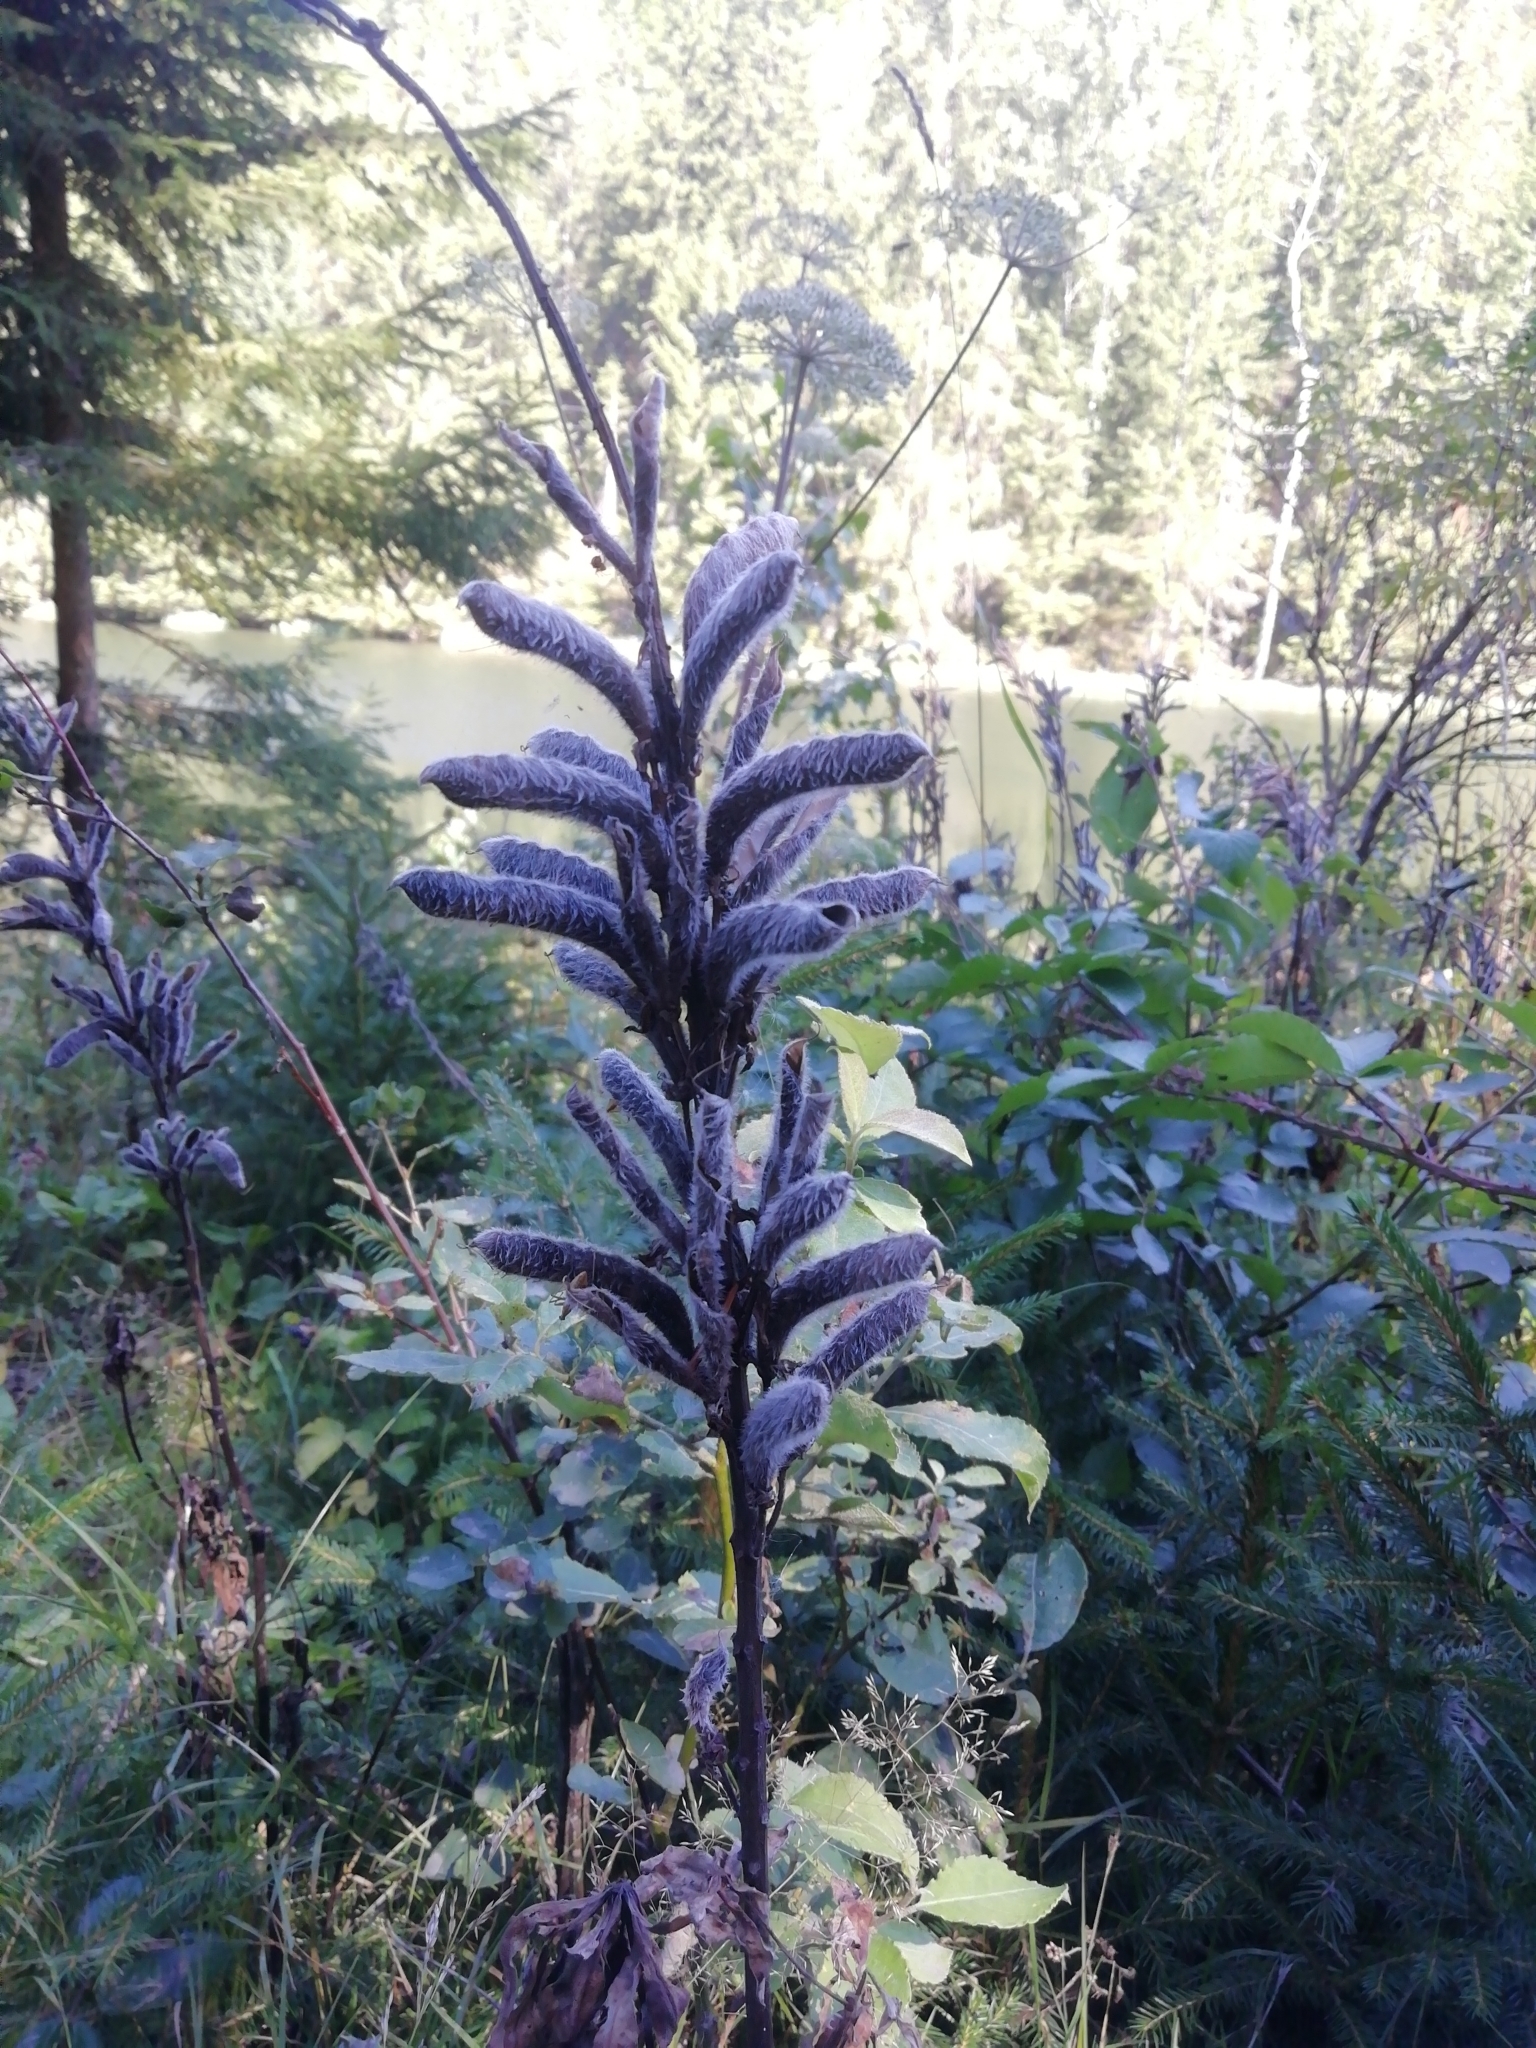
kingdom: Plantae
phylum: Tracheophyta
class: Magnoliopsida
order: Fabales
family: Fabaceae
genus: Lupinus
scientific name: Lupinus polyphyllus
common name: Garden lupin
